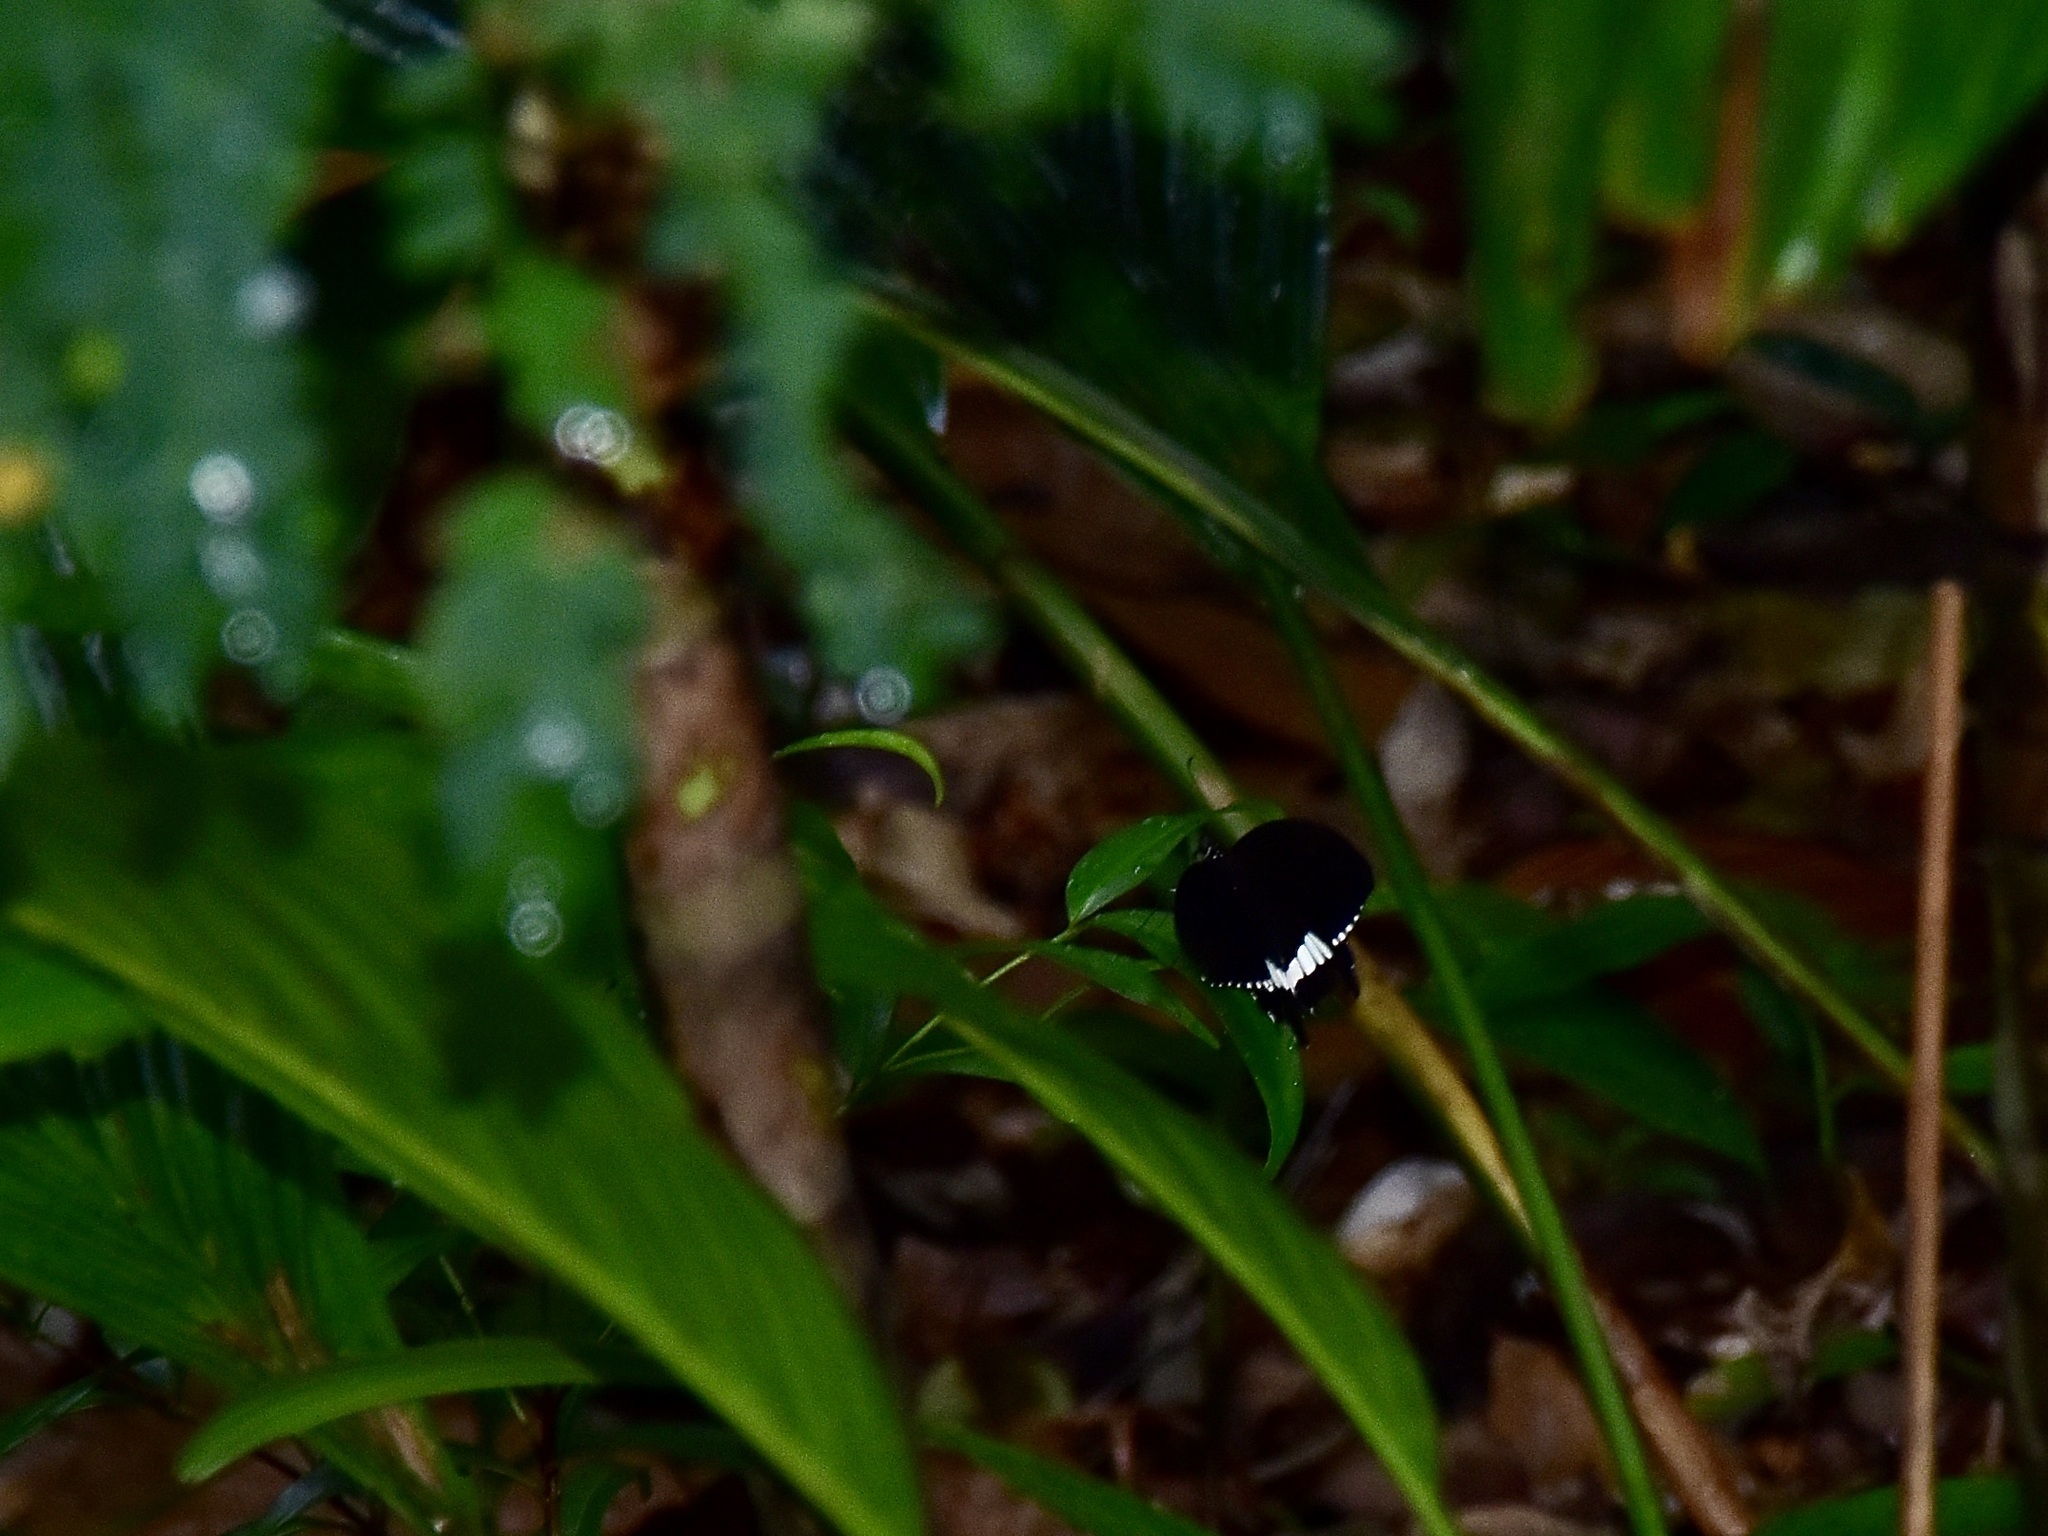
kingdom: Animalia
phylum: Arthropoda
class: Insecta
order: Lepidoptera
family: Papilionidae
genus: Papilio
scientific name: Papilio polytes
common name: Common mormon
